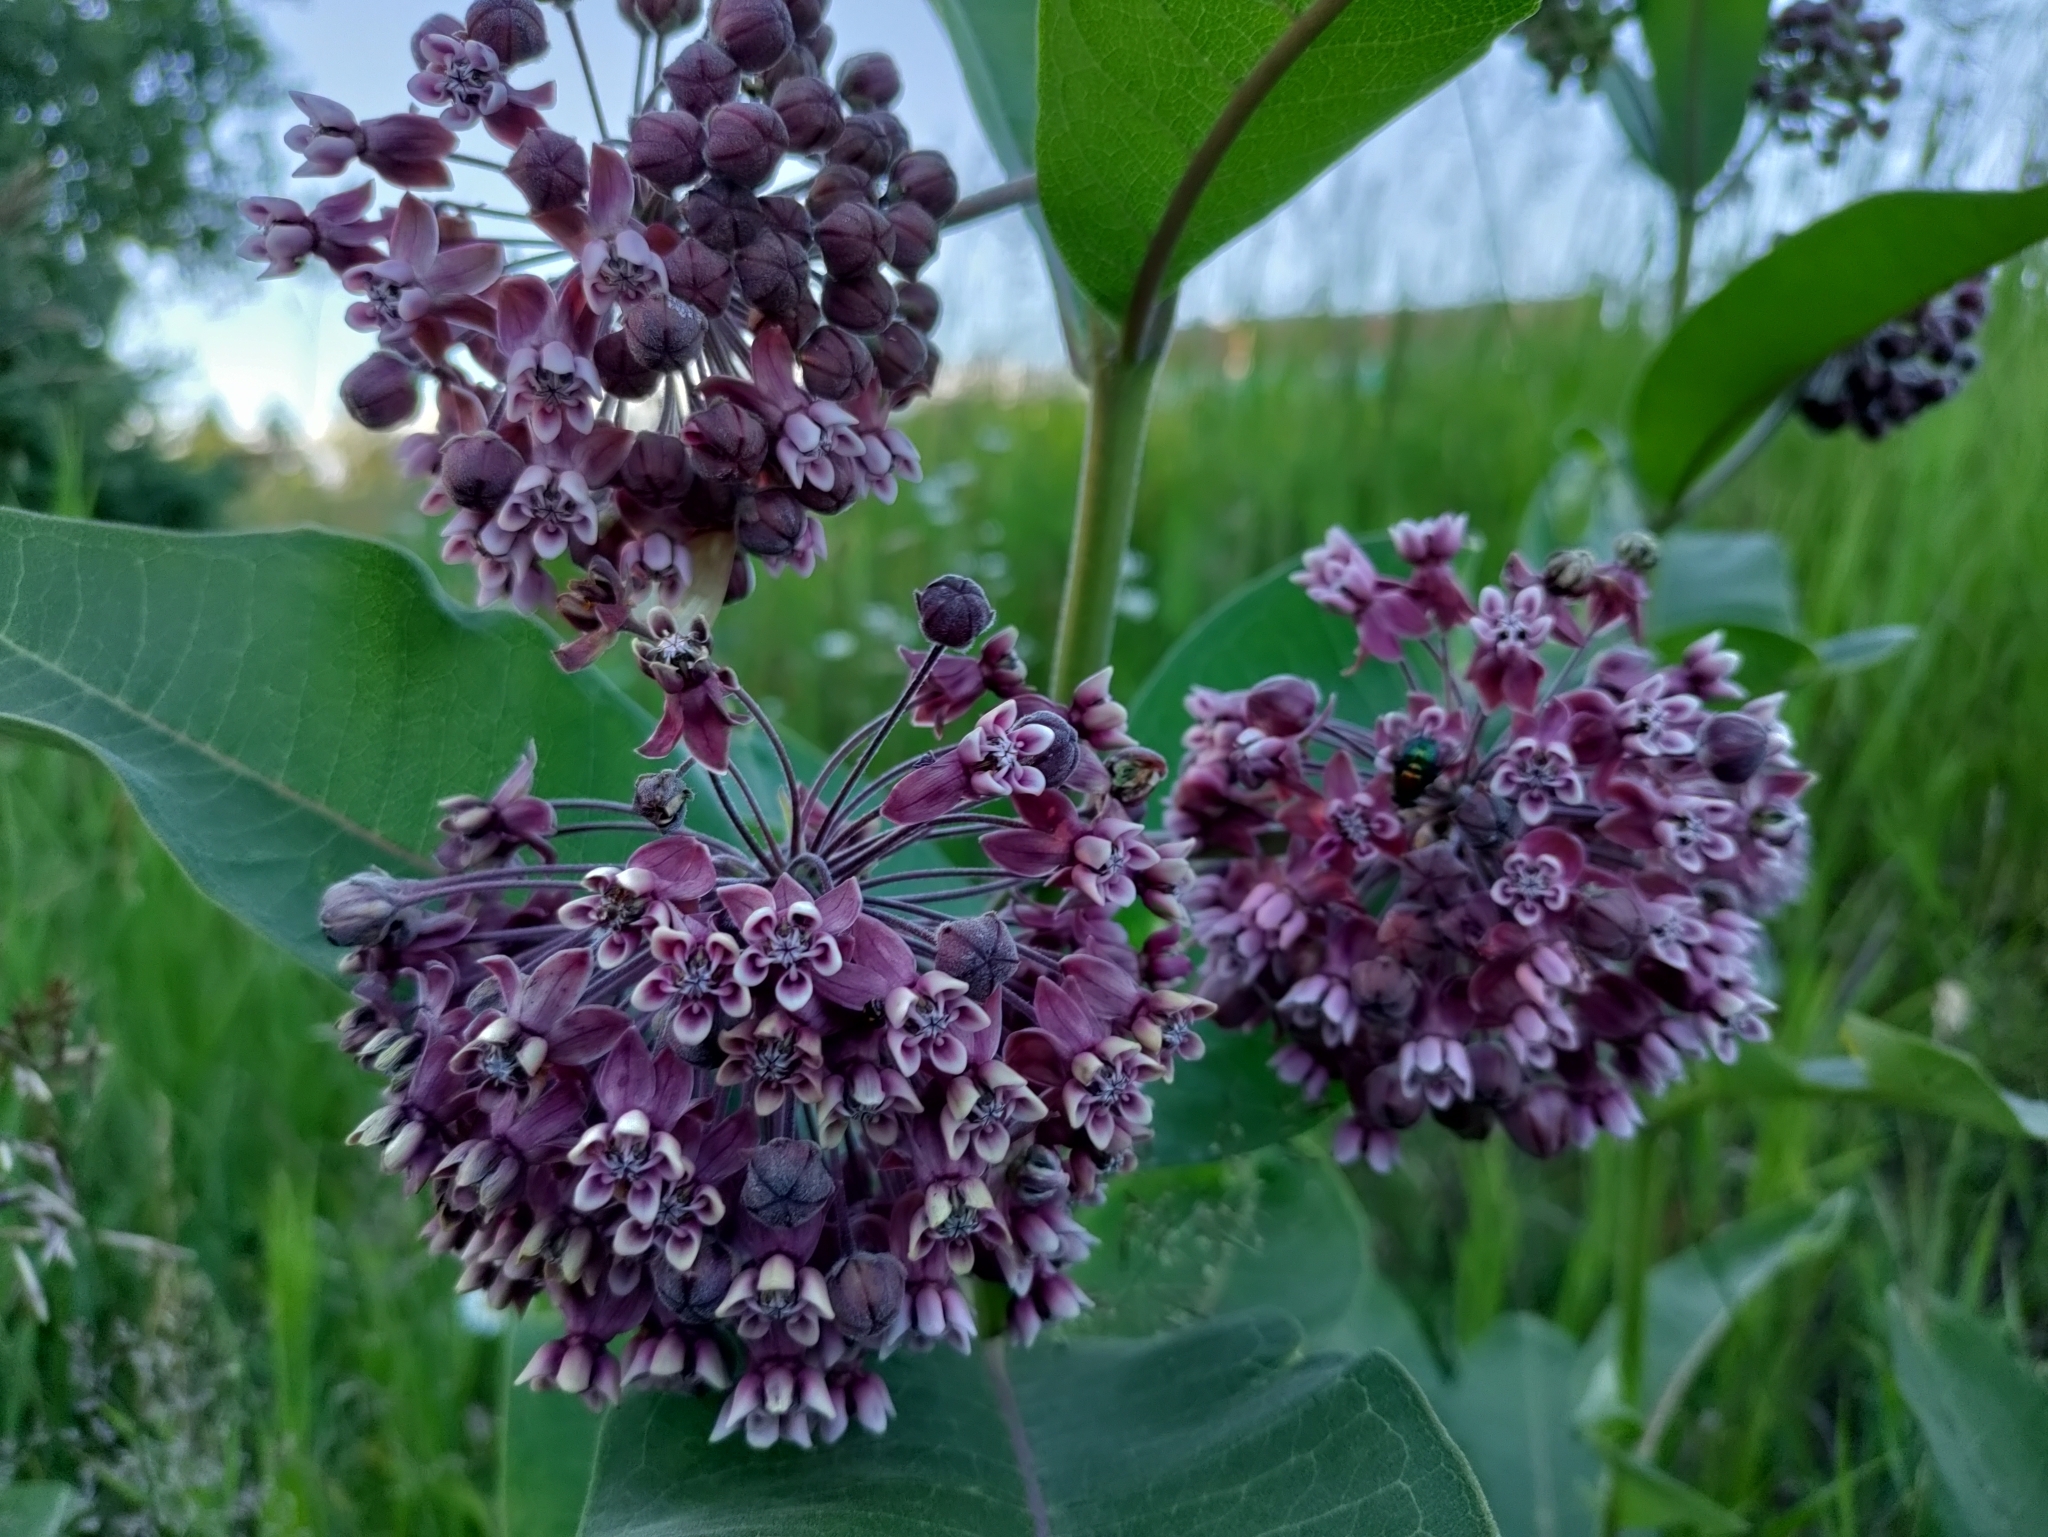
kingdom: Plantae
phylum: Tracheophyta
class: Magnoliopsida
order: Gentianales
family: Apocynaceae
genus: Asclepias
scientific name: Asclepias syriaca
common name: Common milkweed
